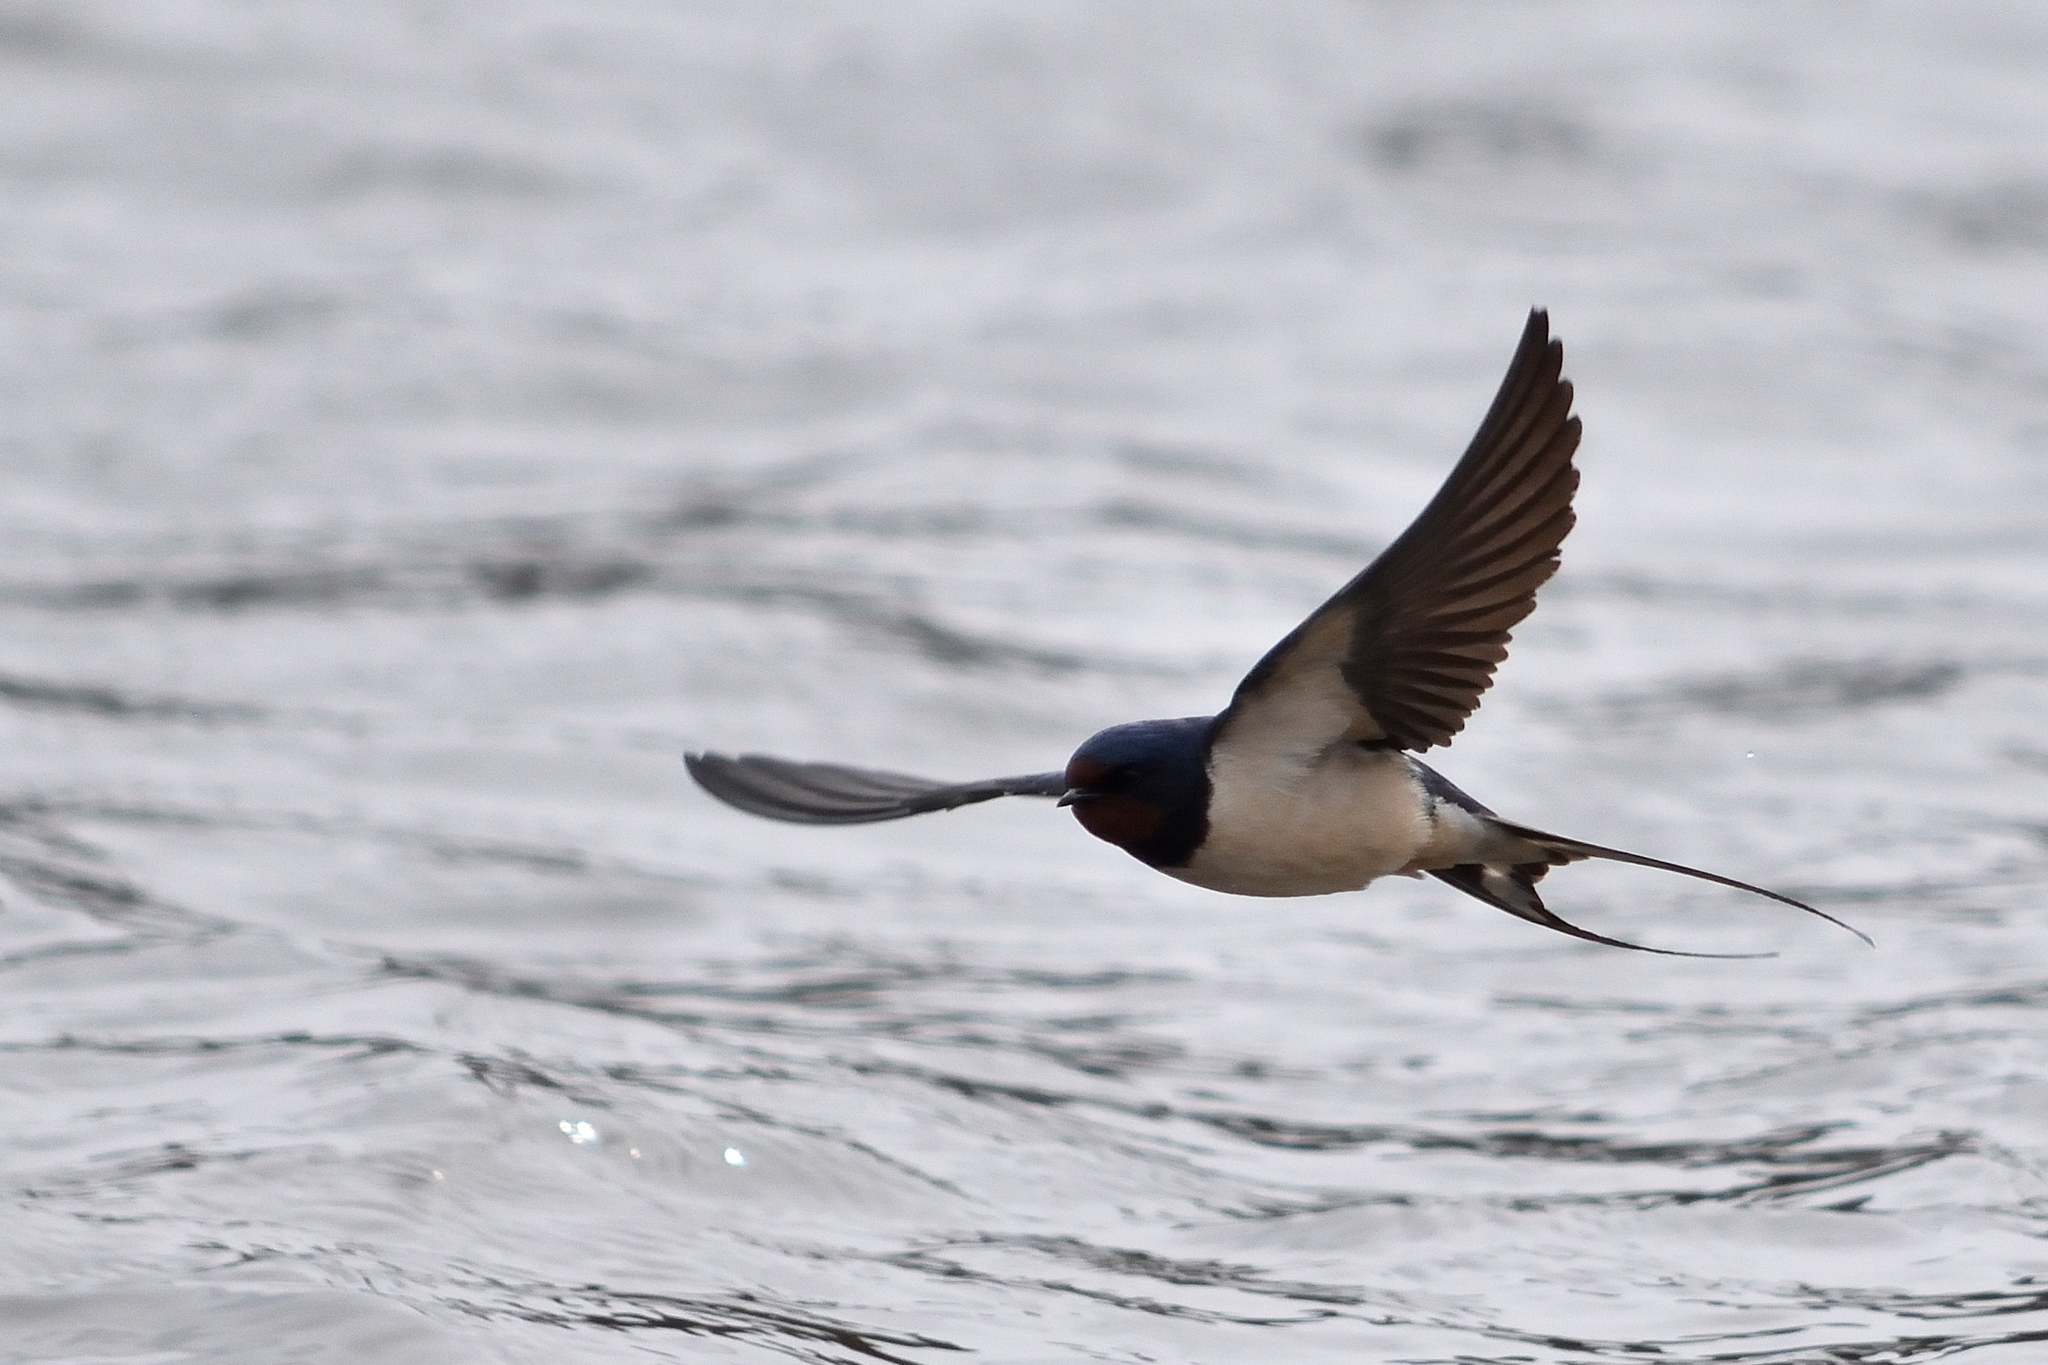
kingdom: Animalia
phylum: Chordata
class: Aves
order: Passeriformes
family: Hirundinidae
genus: Hirundo
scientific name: Hirundo rustica
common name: Barn swallow
